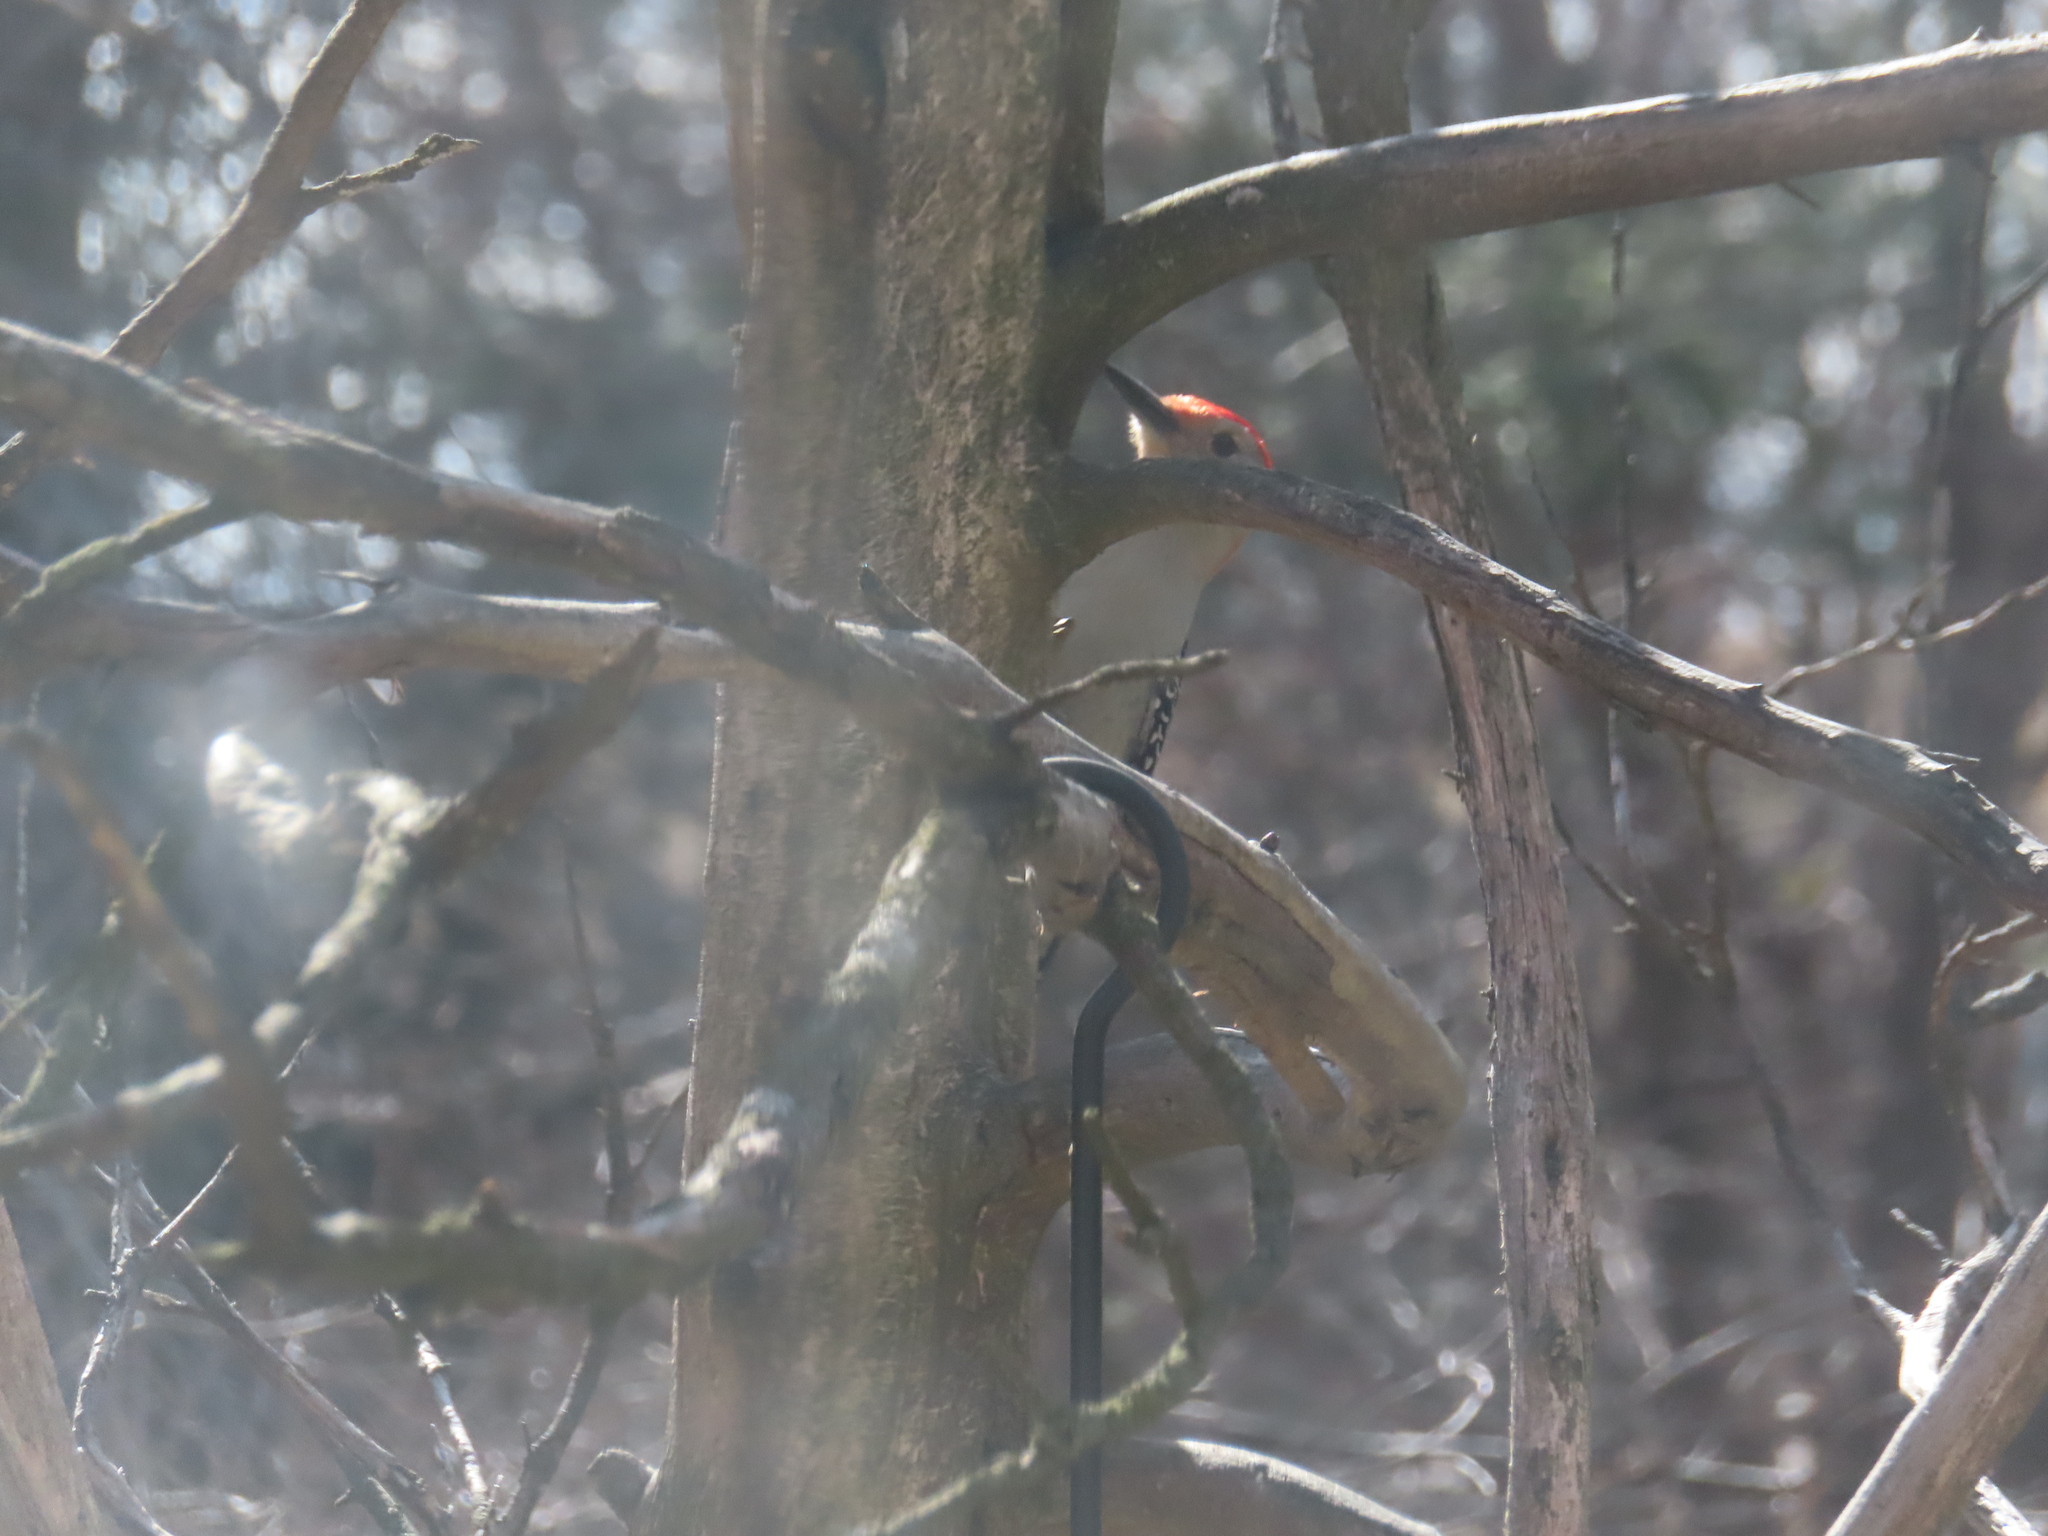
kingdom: Animalia
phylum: Chordata
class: Aves
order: Piciformes
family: Picidae
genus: Melanerpes
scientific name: Melanerpes carolinus
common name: Red-bellied woodpecker
